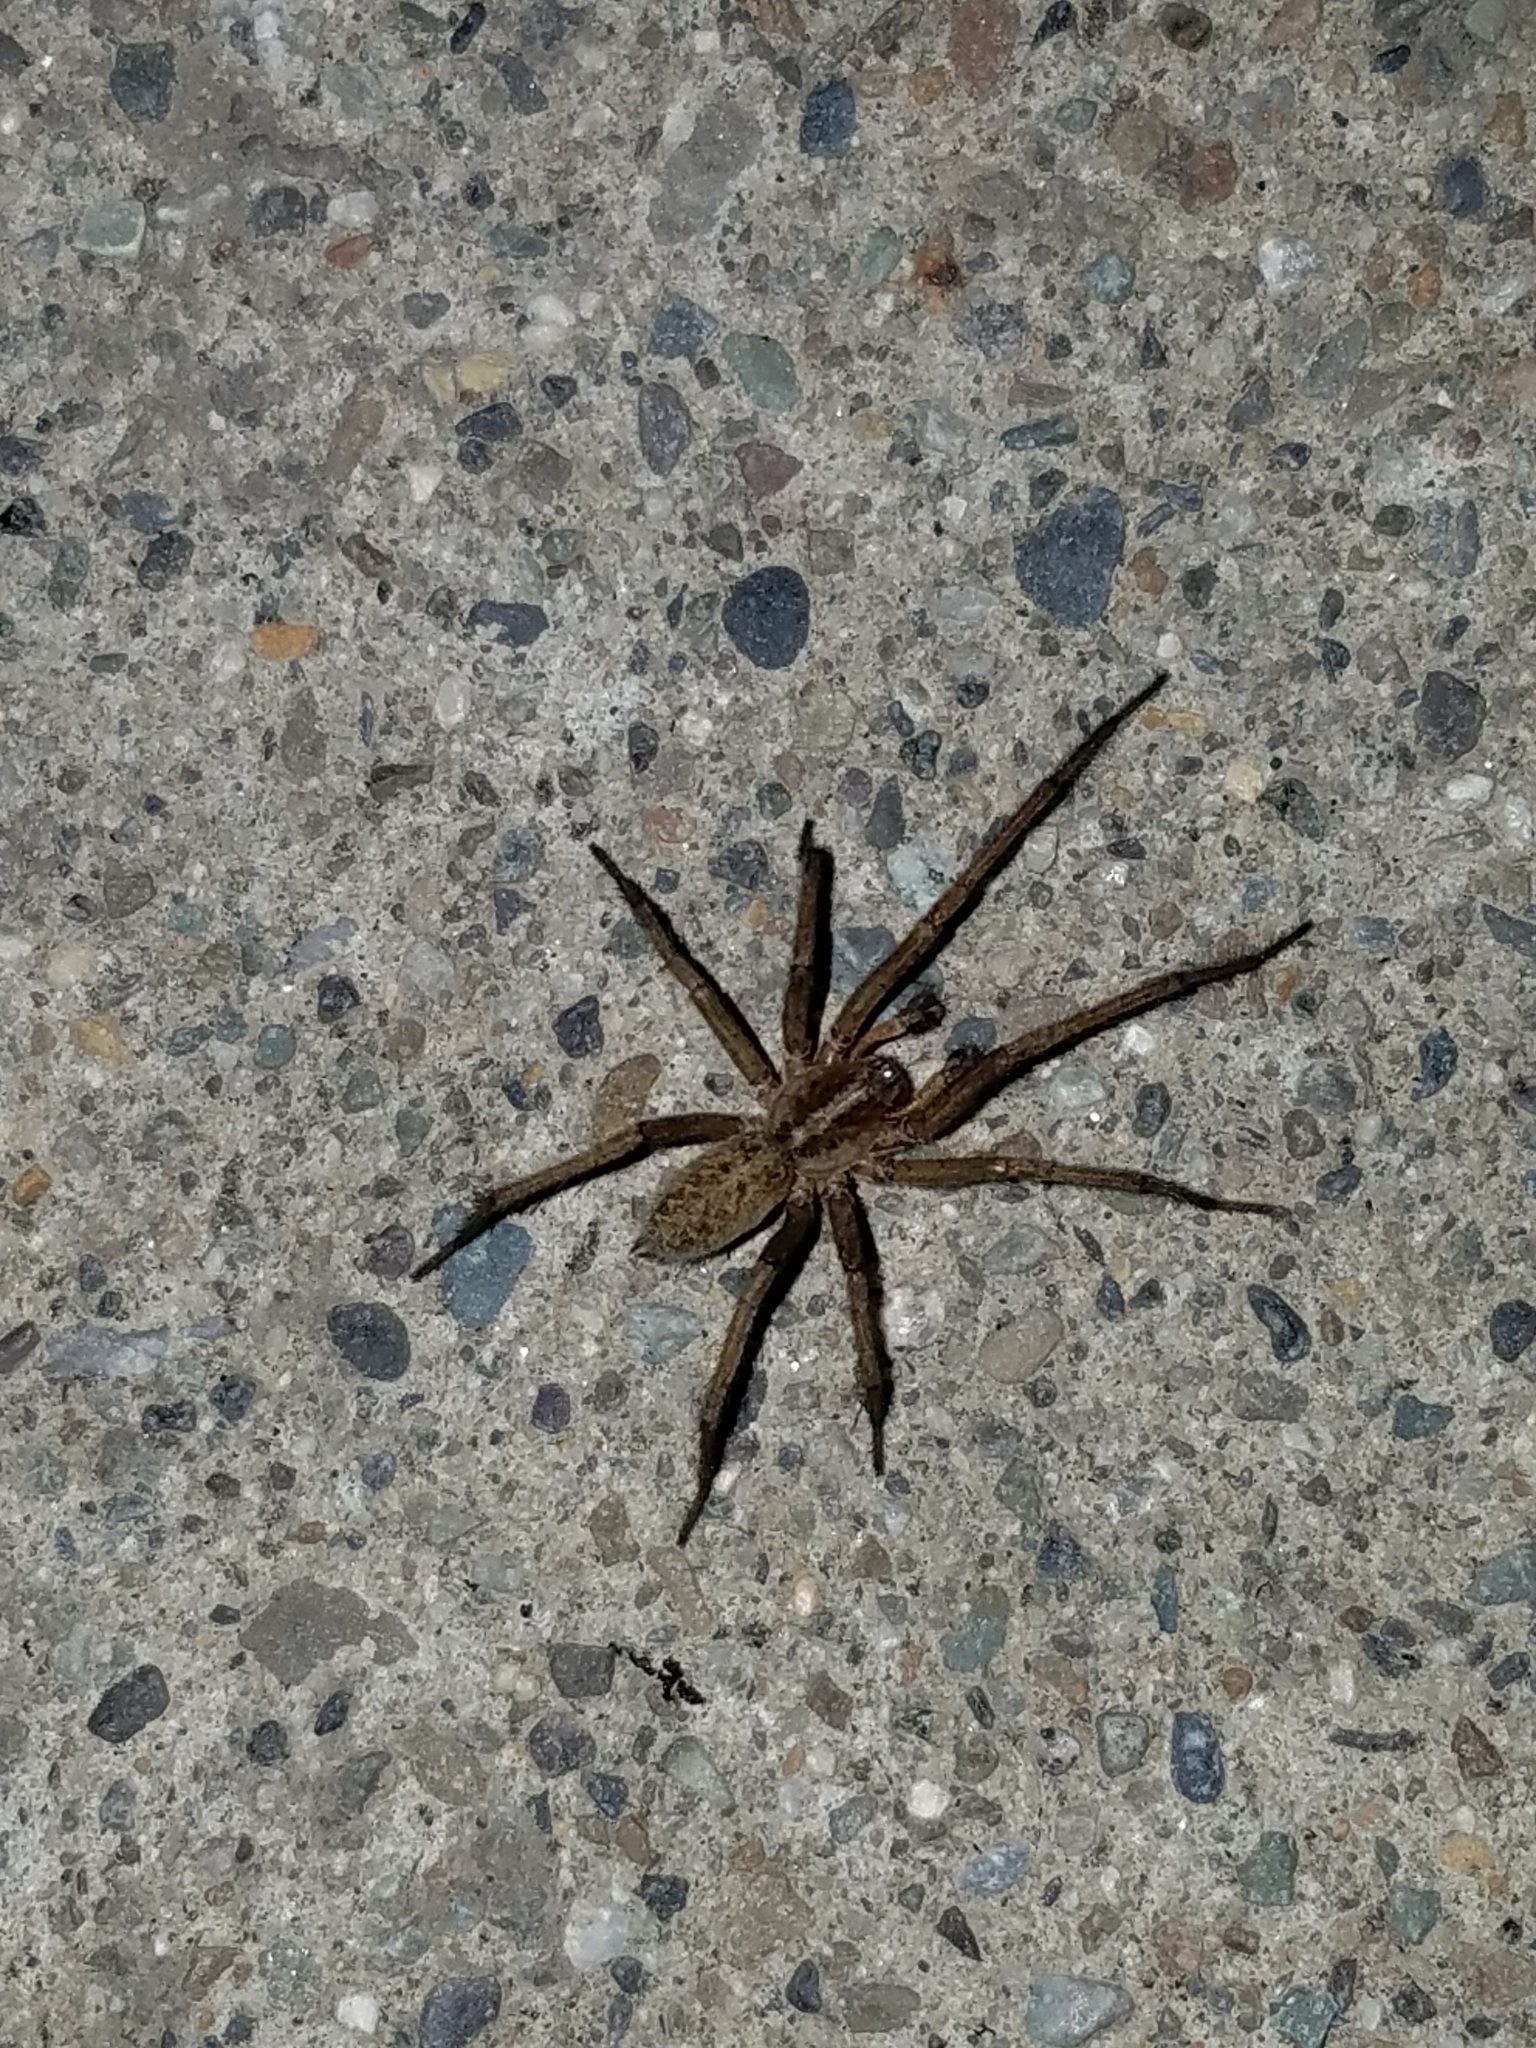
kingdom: Animalia
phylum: Arthropoda
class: Arachnida
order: Araneae
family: Agelenidae
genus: Eratigena
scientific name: Eratigena agrestis
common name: Hobo spider
